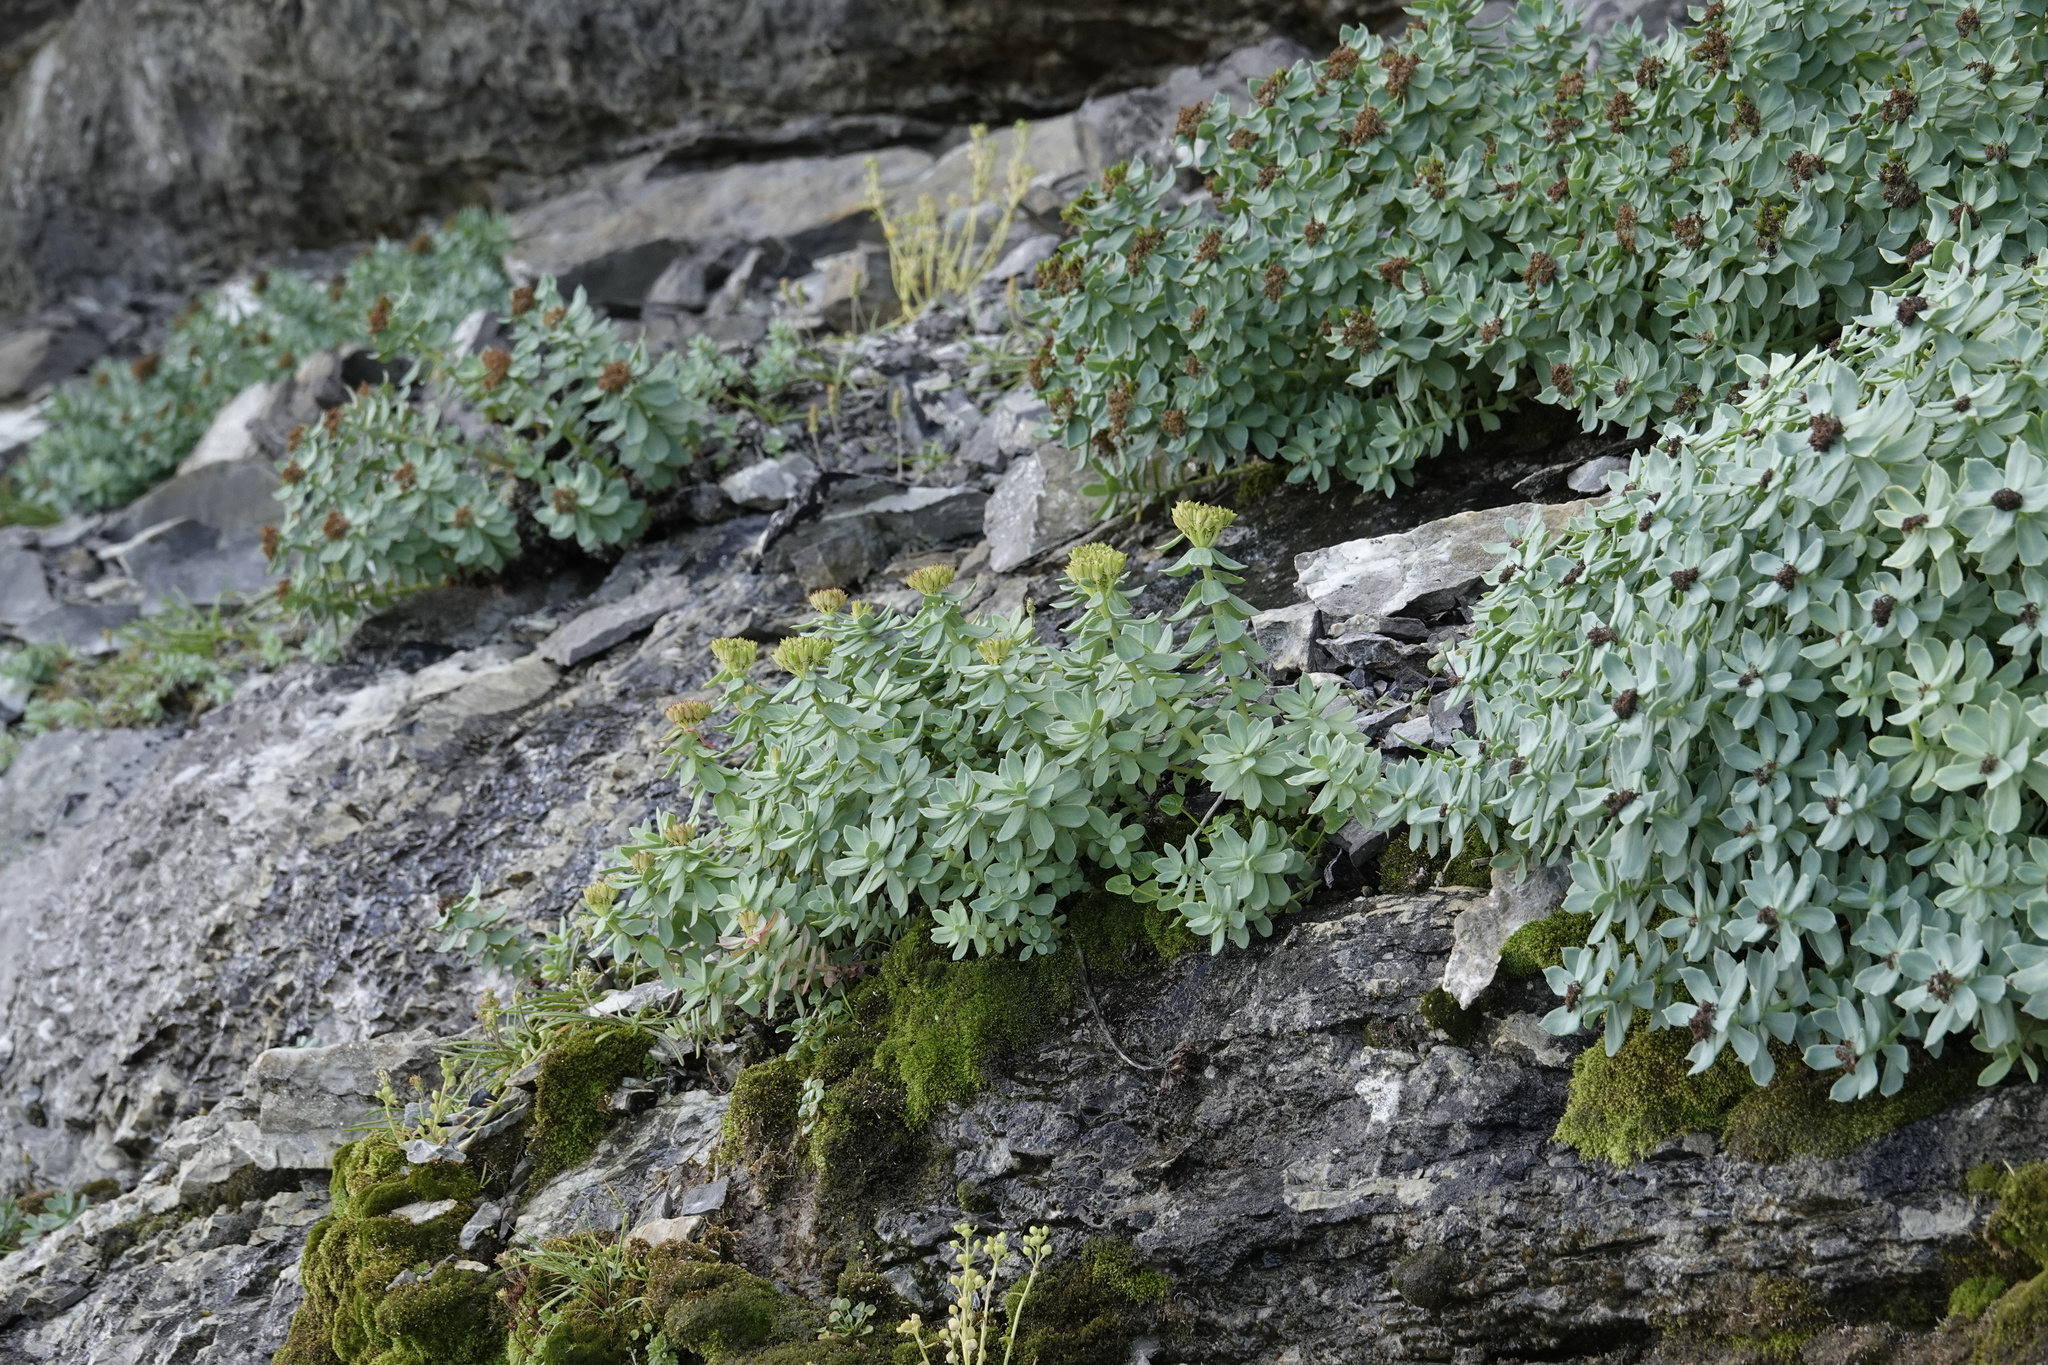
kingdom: Plantae
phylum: Tracheophyta
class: Magnoliopsida
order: Saxifragales
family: Crassulaceae
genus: Rhodiola
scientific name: Rhodiola rosea
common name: Roseroot
